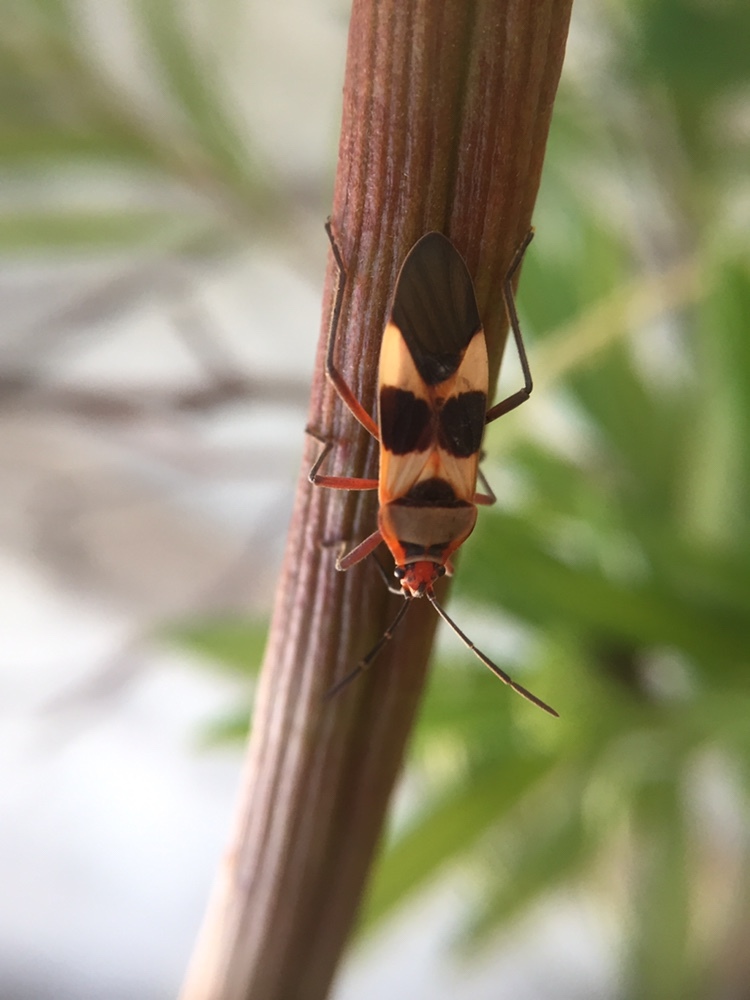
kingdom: Animalia
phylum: Arthropoda
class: Insecta
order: Hemiptera
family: Lygaeidae
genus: Oncopeltus
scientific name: Oncopeltus unifasciatellus
